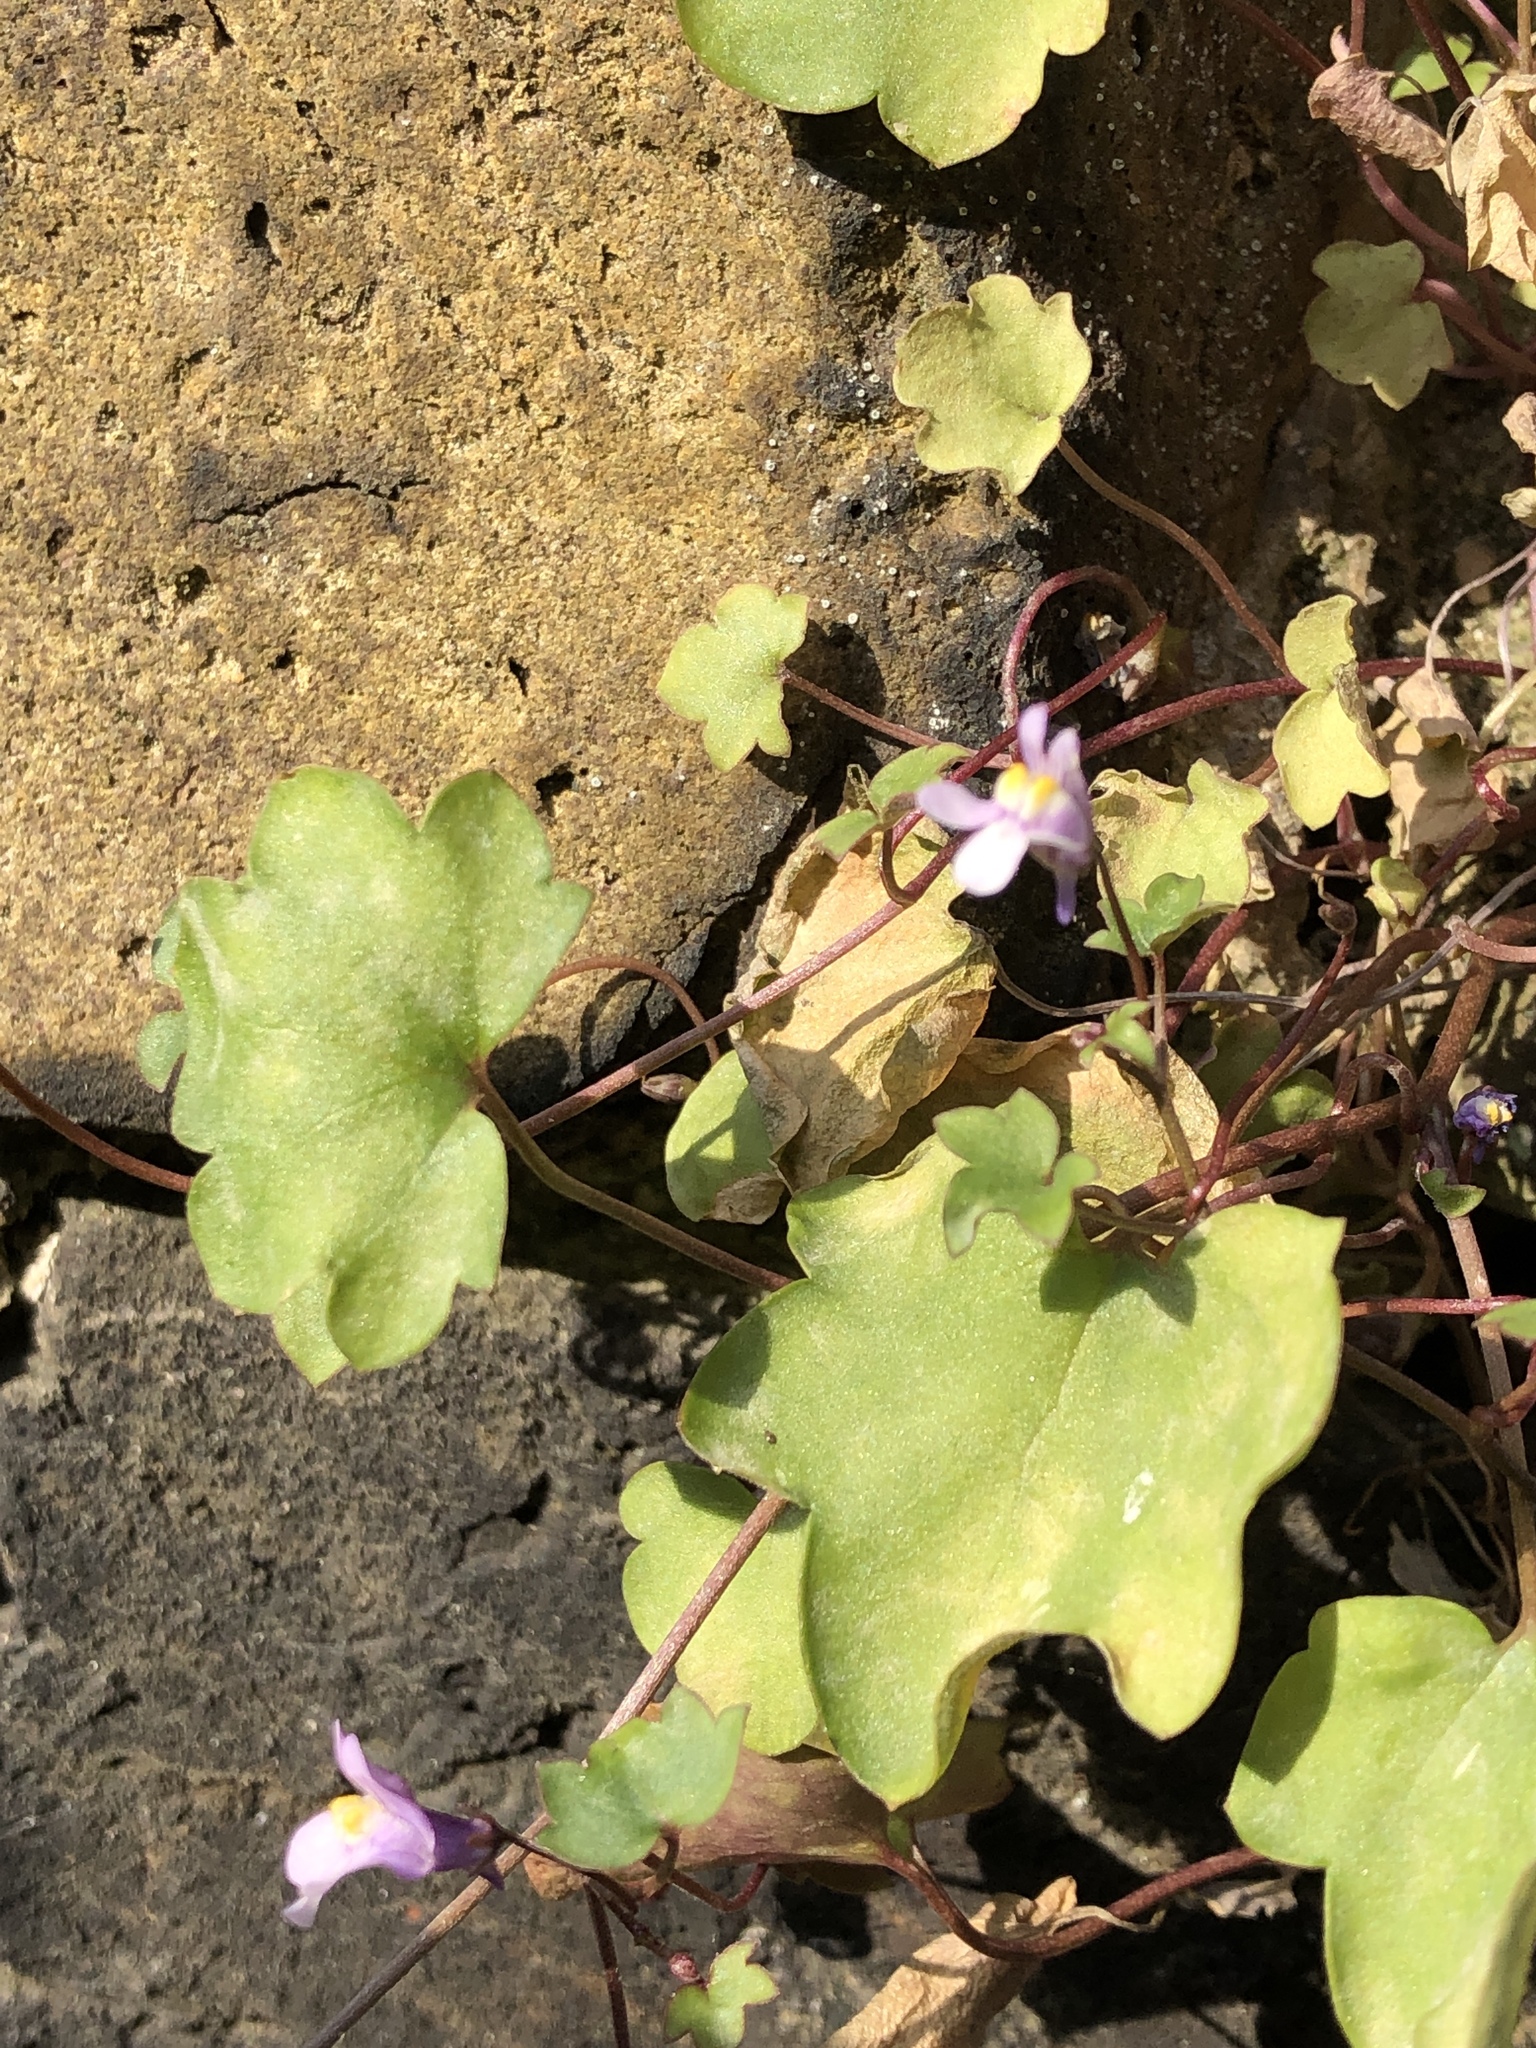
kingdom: Plantae
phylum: Tracheophyta
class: Magnoliopsida
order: Lamiales
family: Plantaginaceae
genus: Cymbalaria
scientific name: Cymbalaria muralis
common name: Ivy-leaved toadflax
